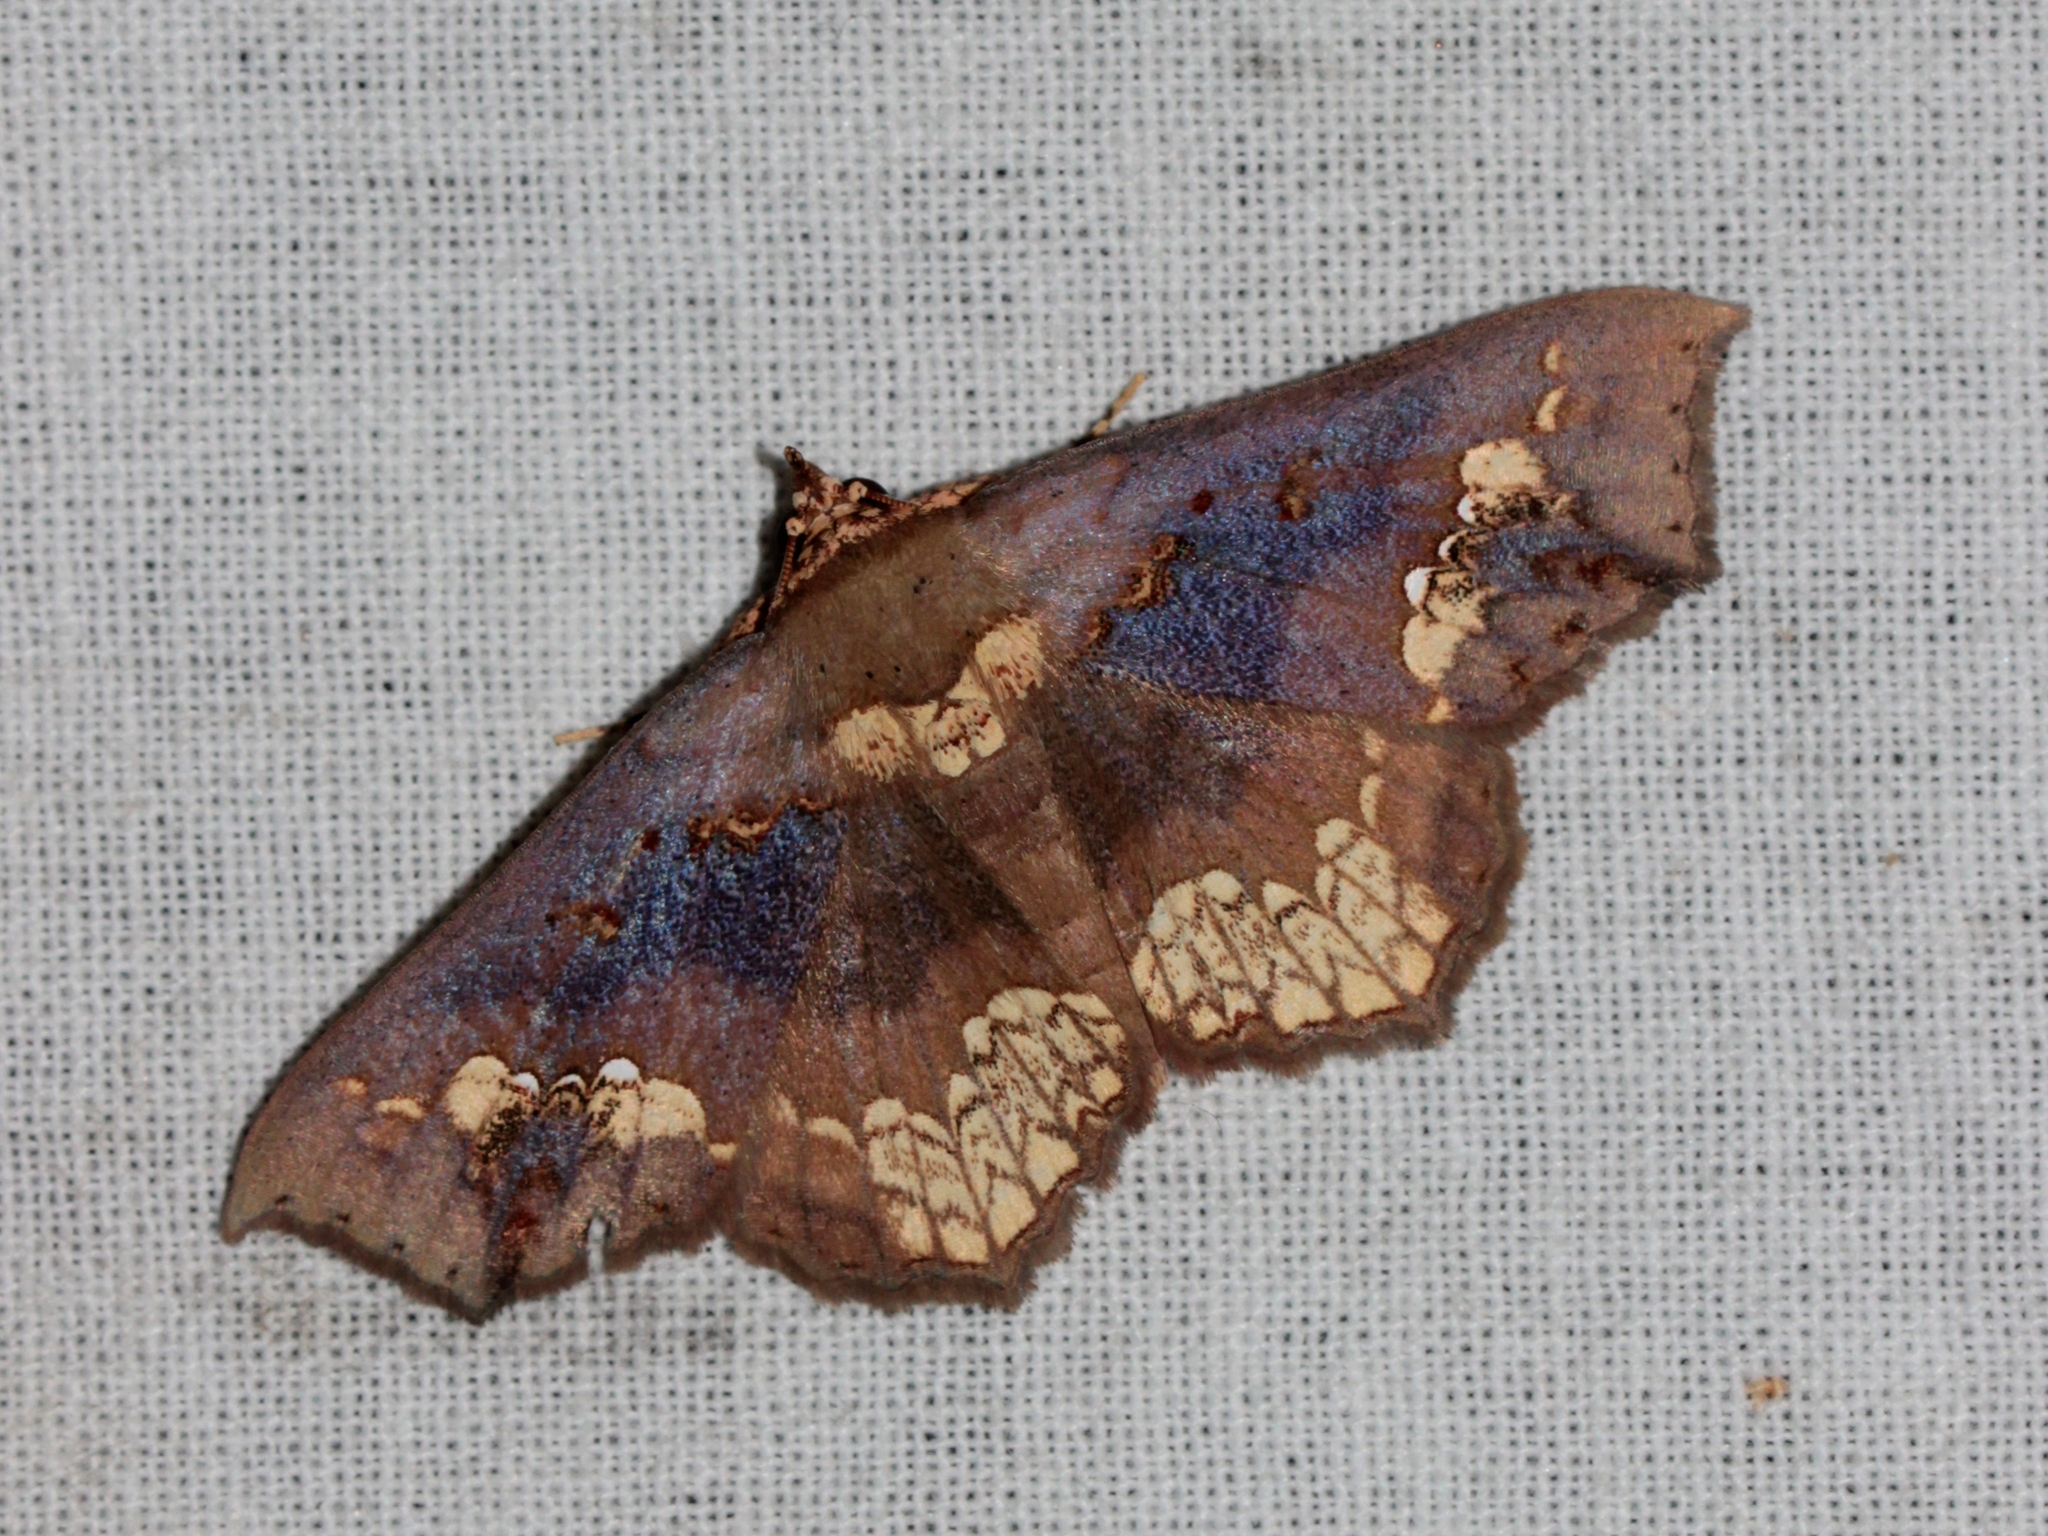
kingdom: Animalia
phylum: Arthropoda
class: Insecta
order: Lepidoptera
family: Erebidae
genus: Lopharthrum
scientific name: Lopharthrum comprimens
